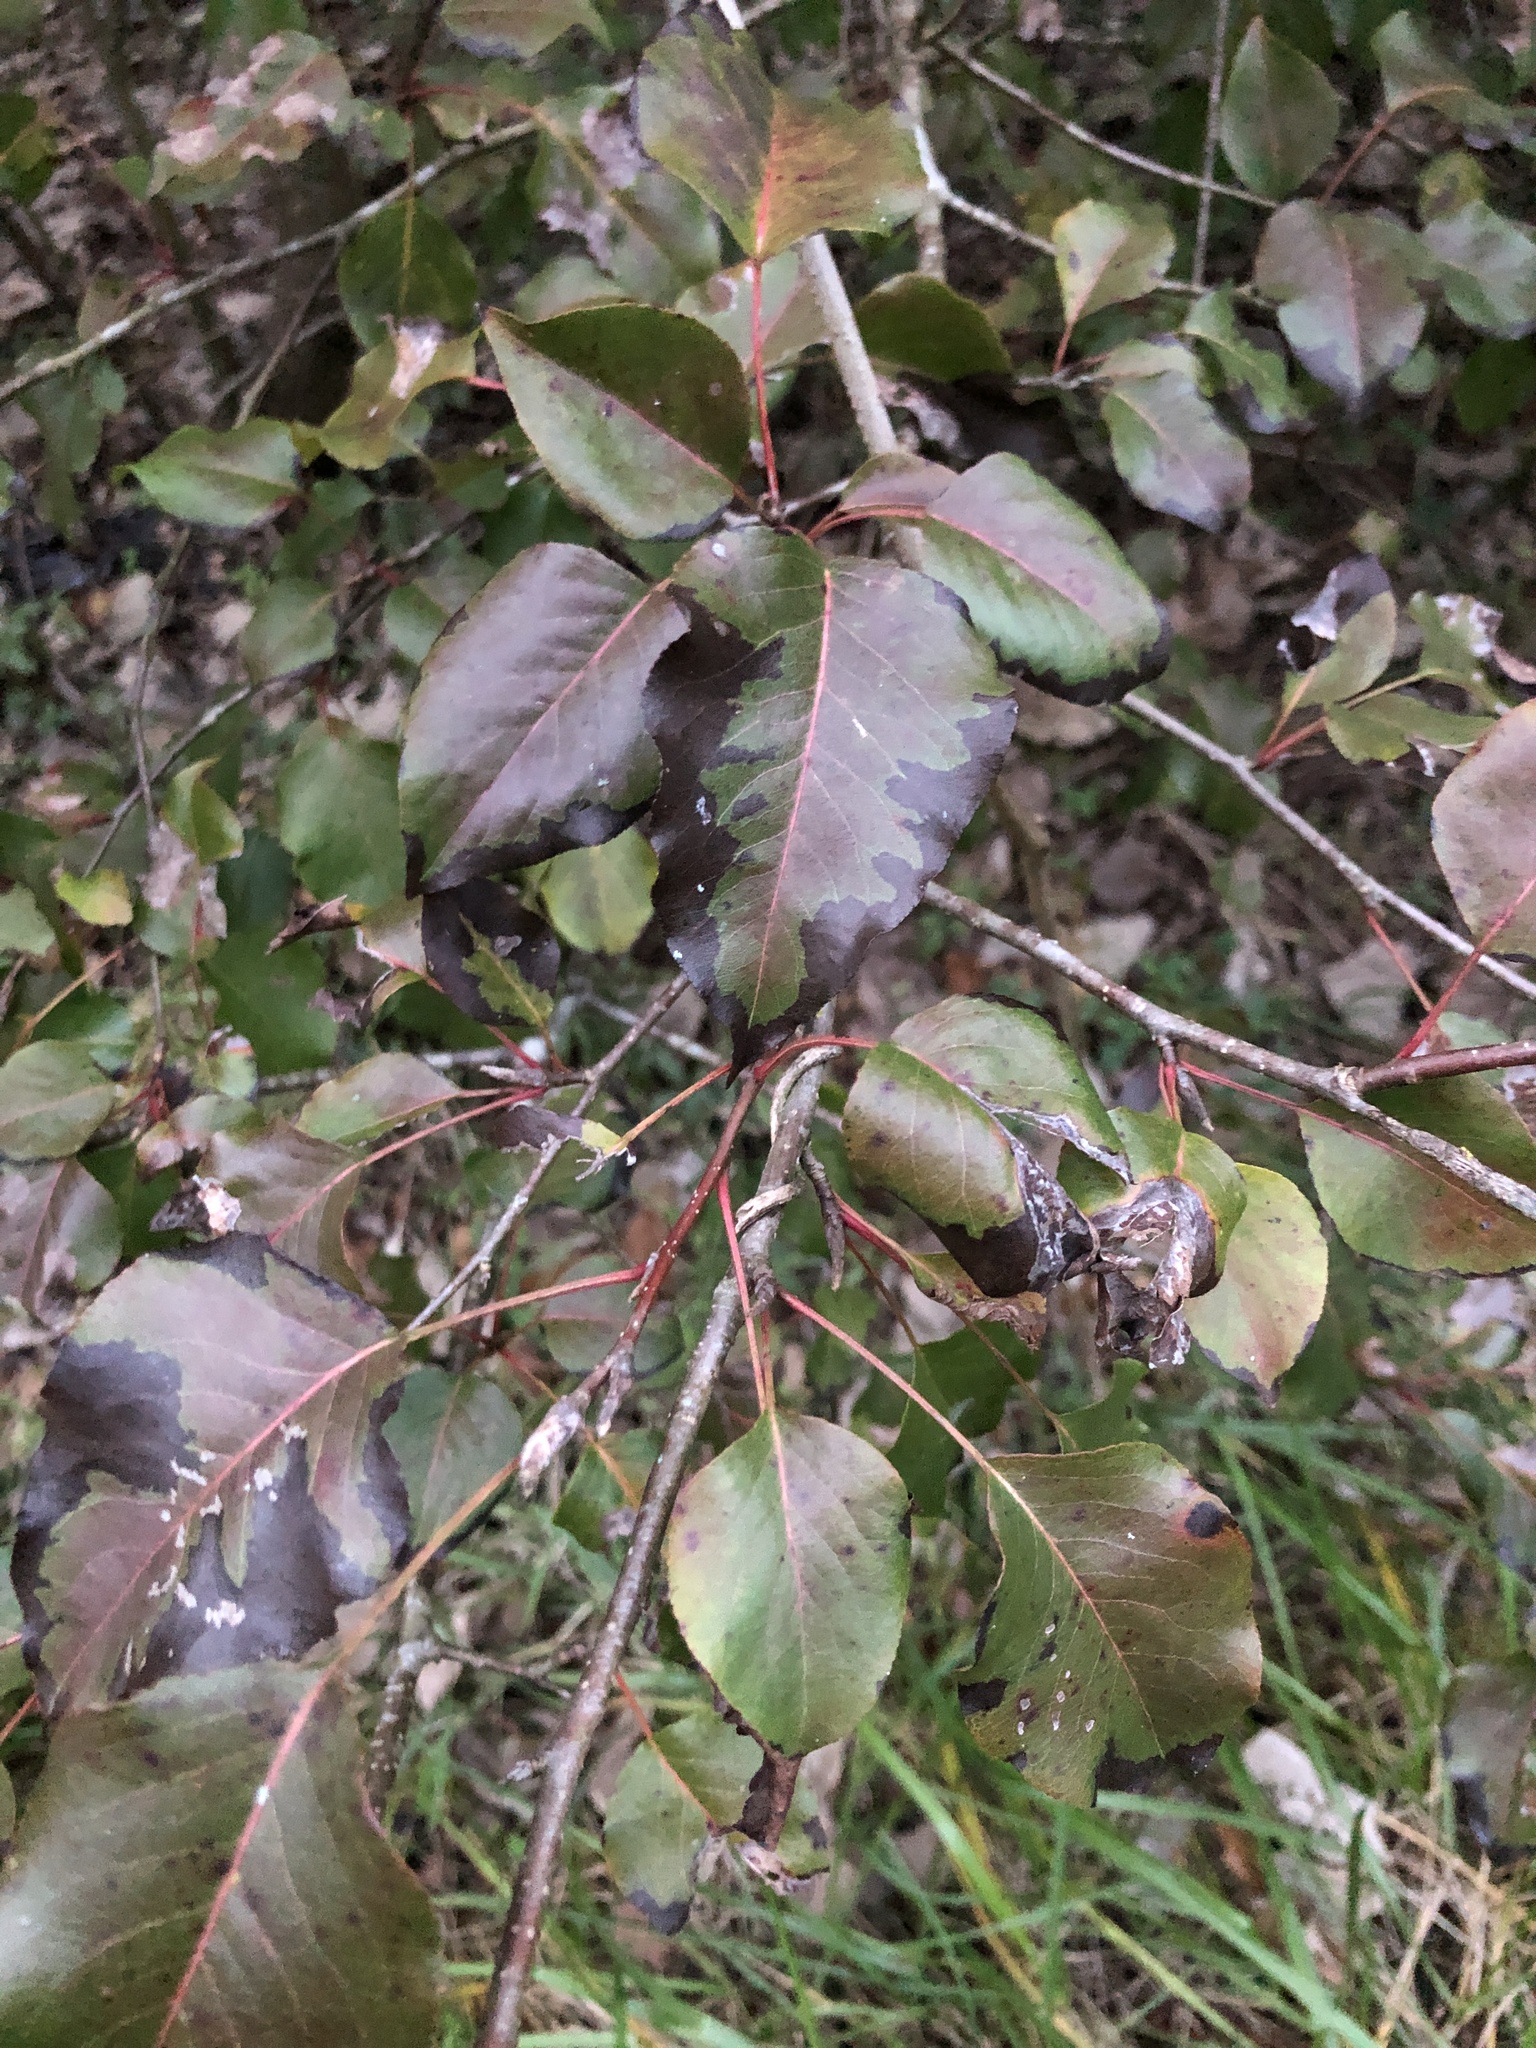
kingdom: Plantae
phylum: Tracheophyta
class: Magnoliopsida
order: Rosales
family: Rosaceae
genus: Pyrus
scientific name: Pyrus calleryana
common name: Callery pear
